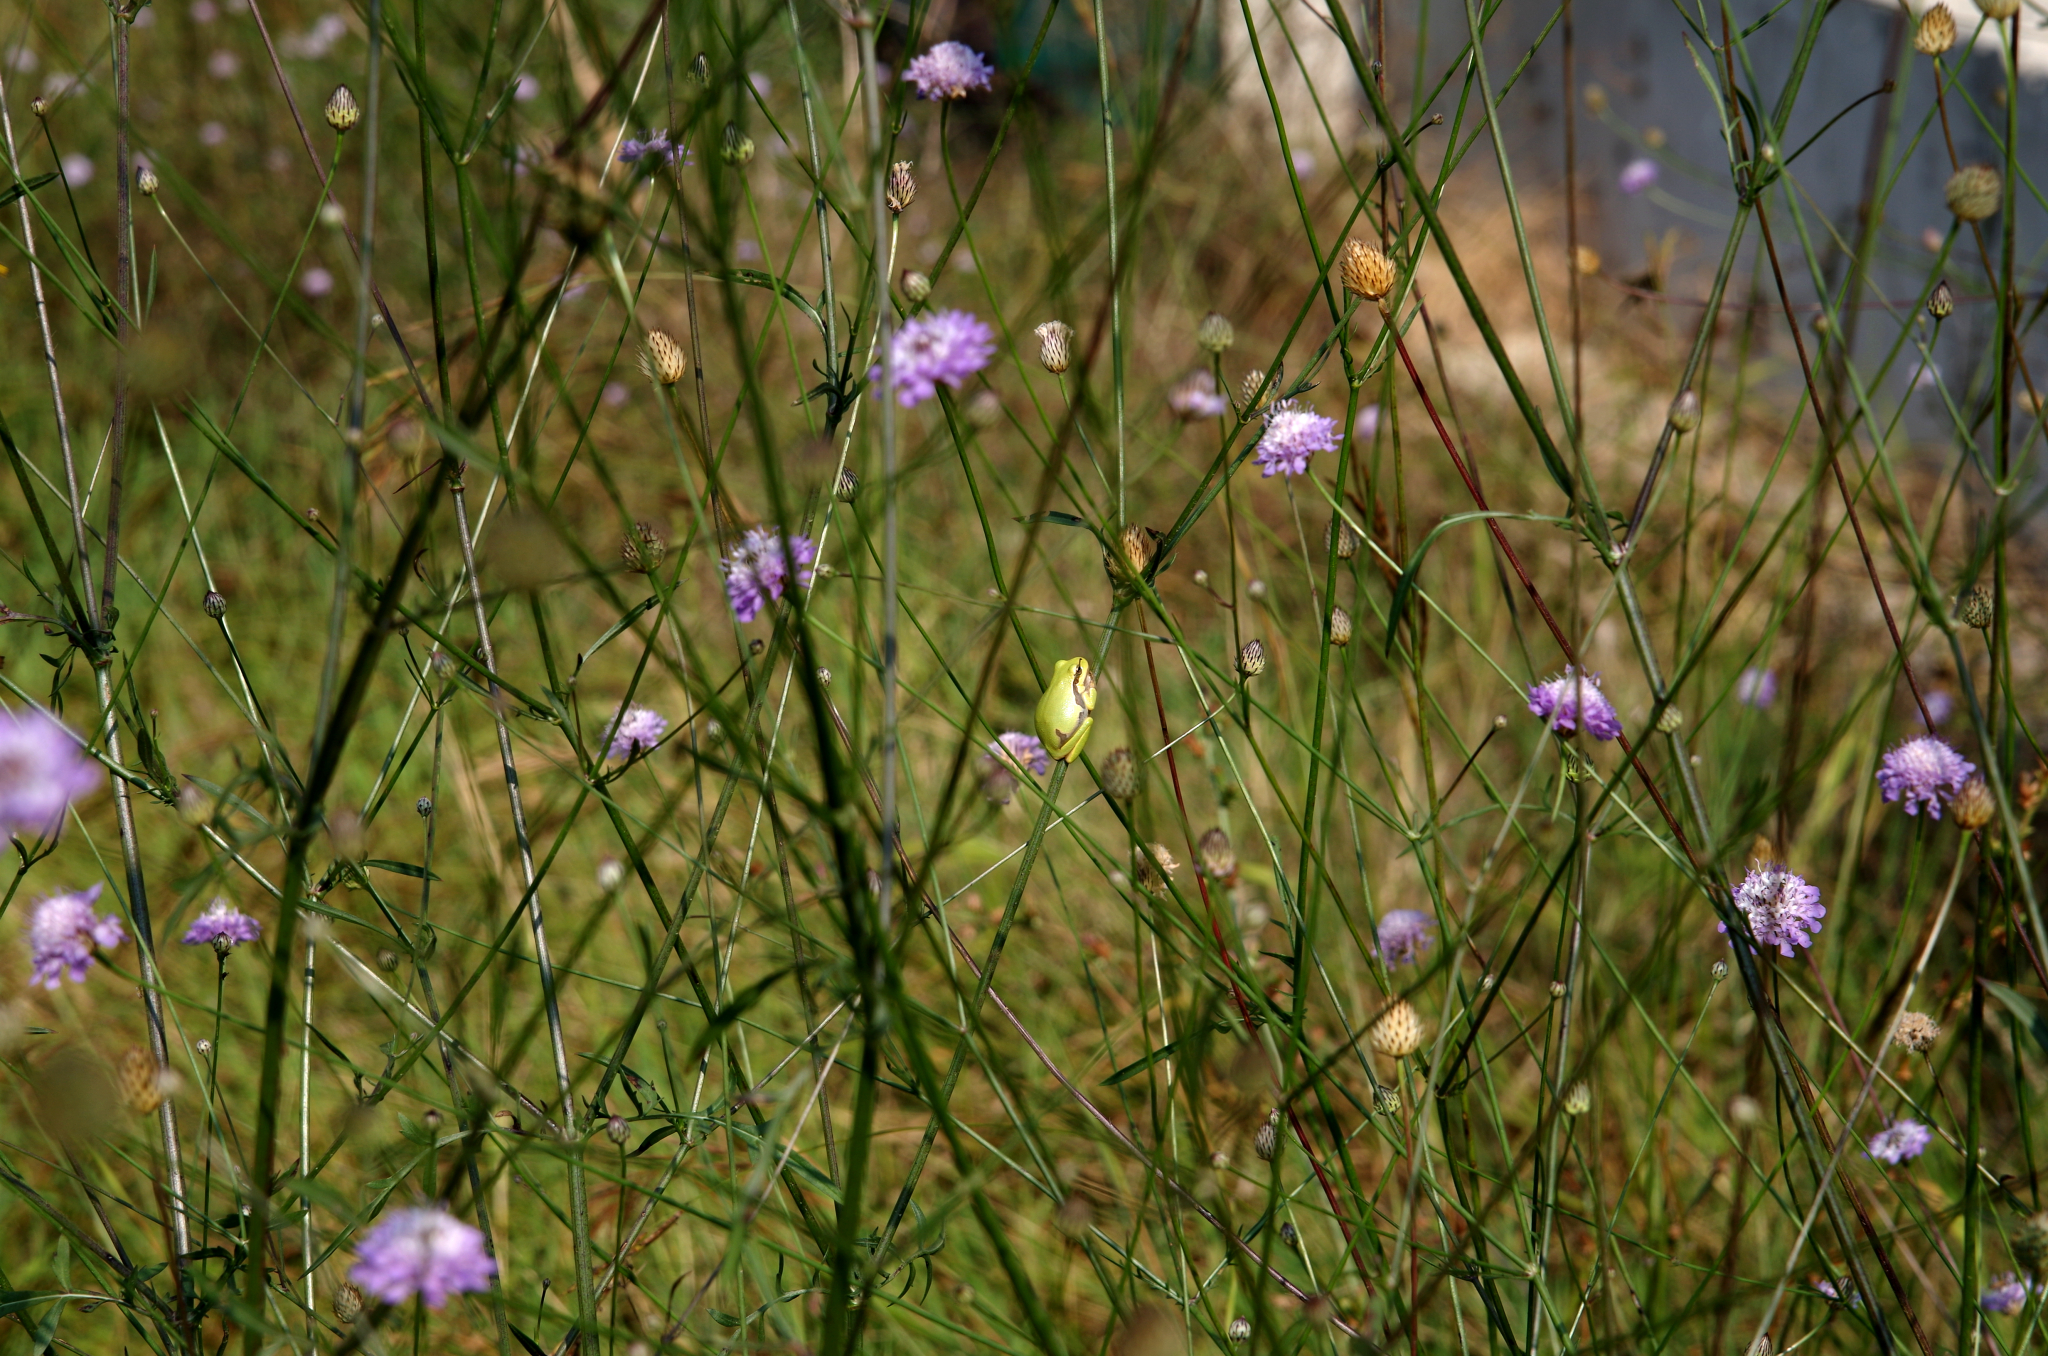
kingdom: Animalia
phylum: Chordata
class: Amphibia
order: Anura
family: Hylidae
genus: Hyla
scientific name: Hyla orientalis
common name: Caucasian treefrog
